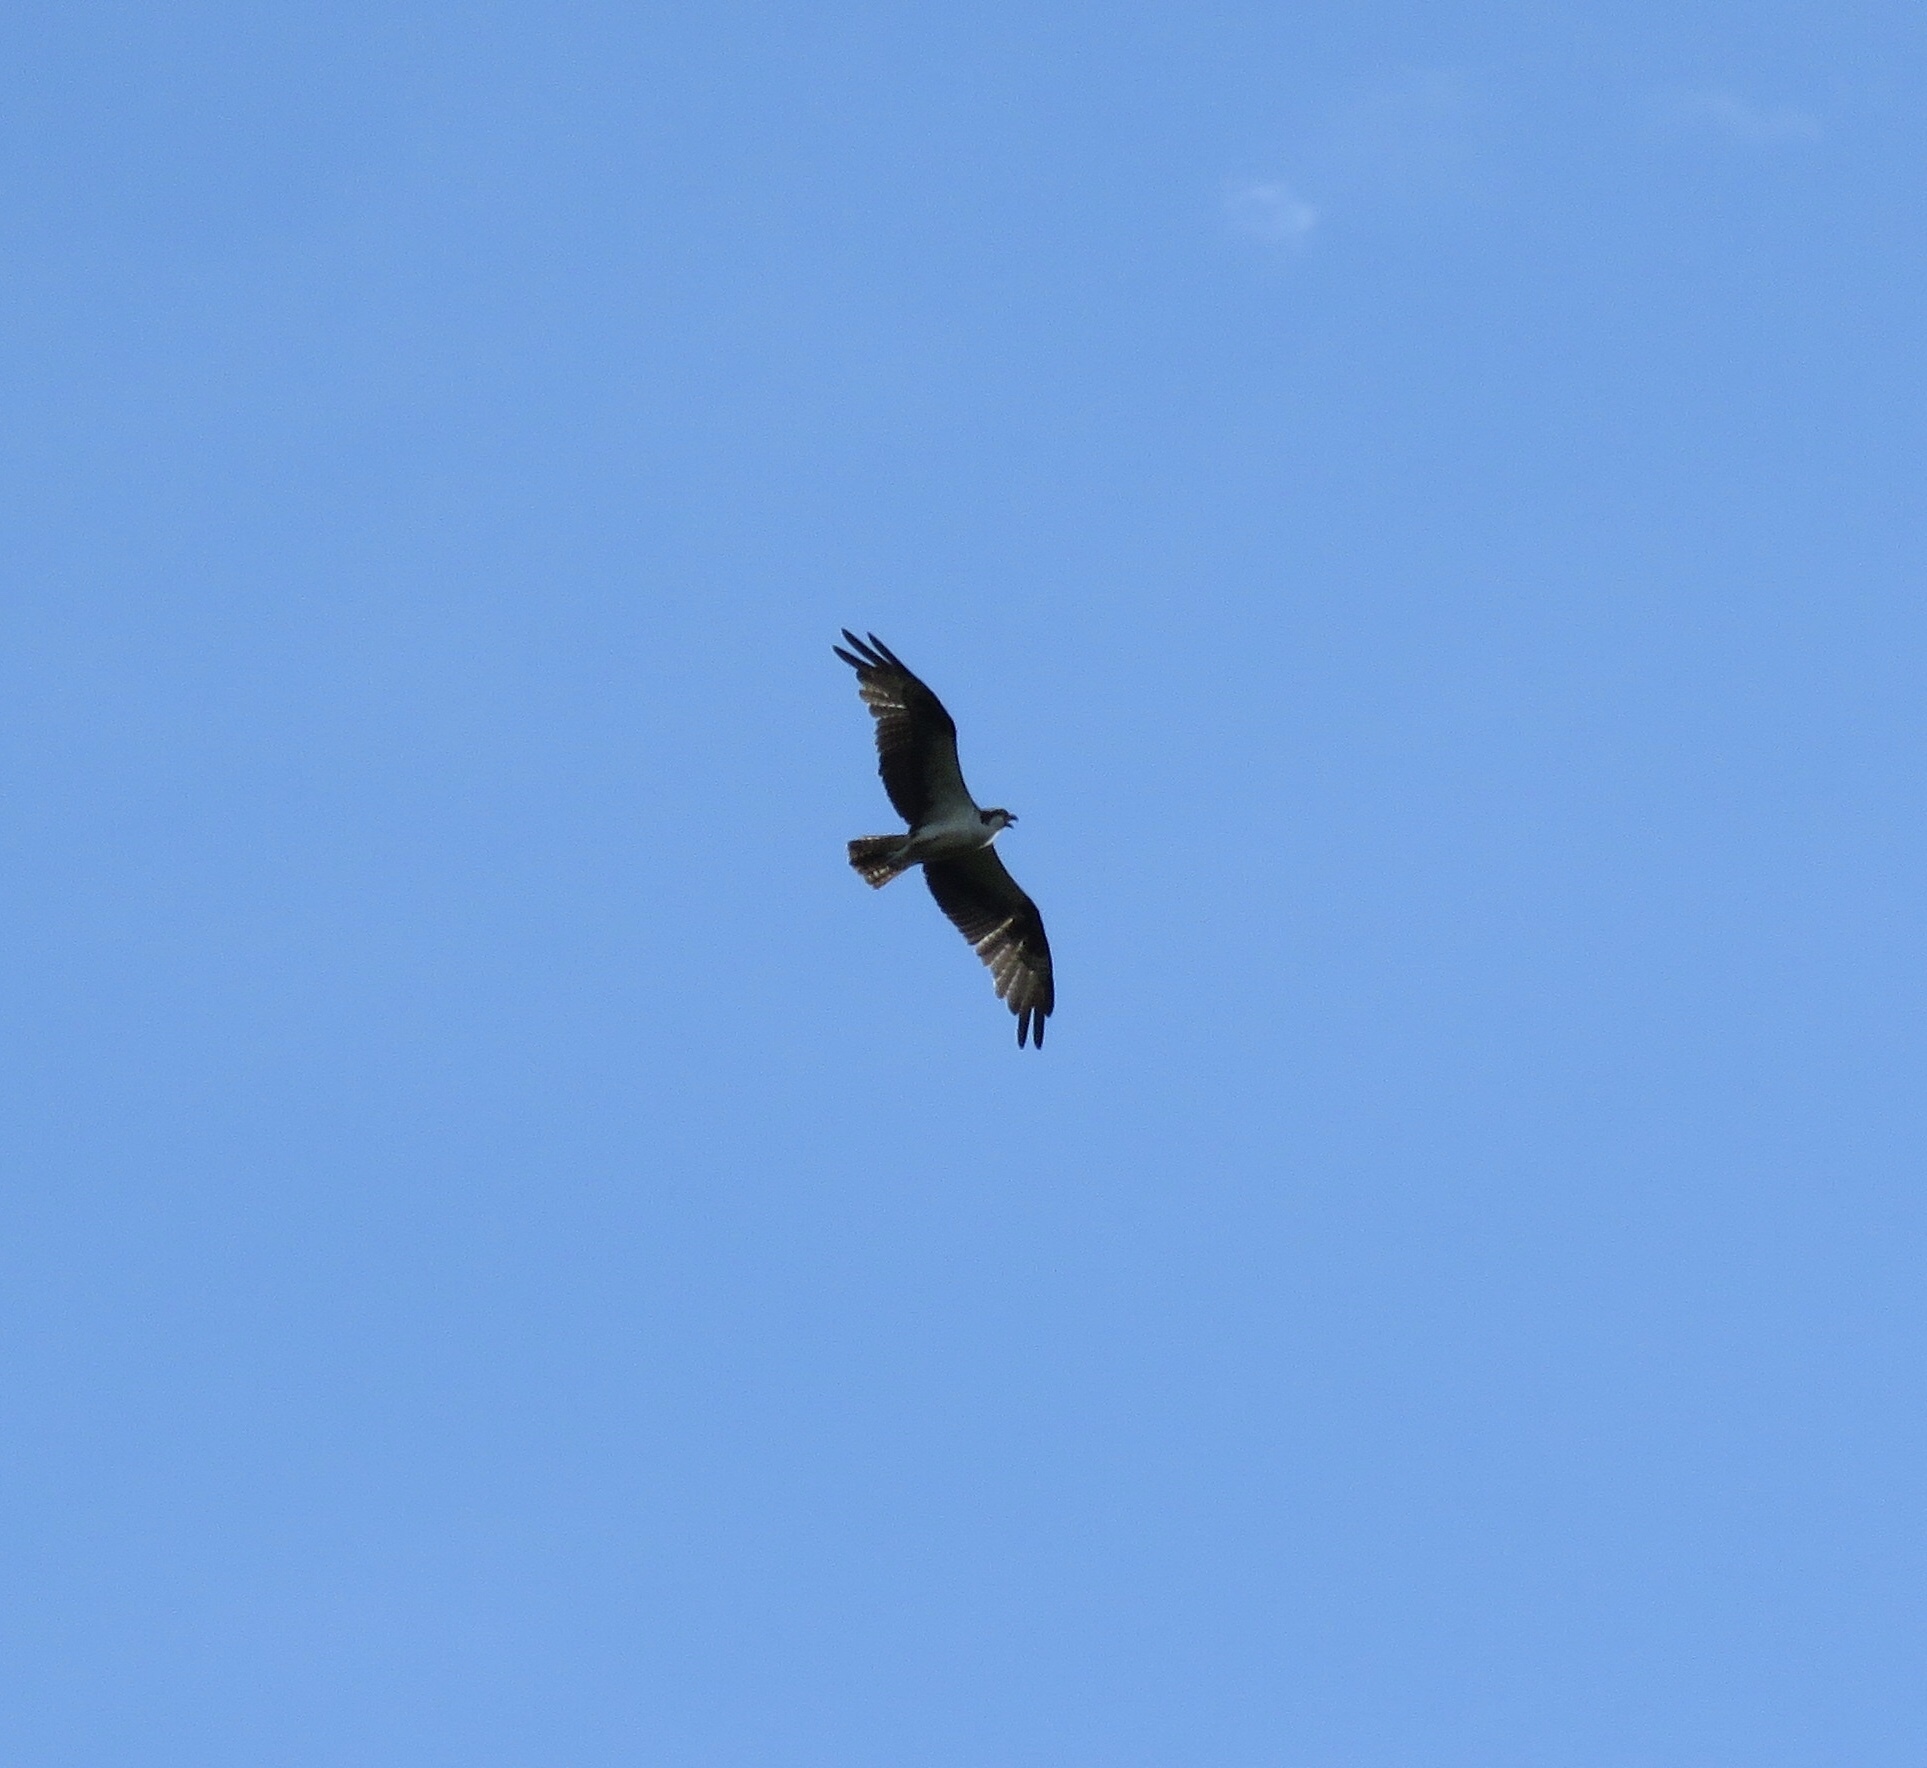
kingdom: Animalia
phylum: Chordata
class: Aves
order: Accipitriformes
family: Pandionidae
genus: Pandion
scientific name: Pandion haliaetus
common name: Osprey
